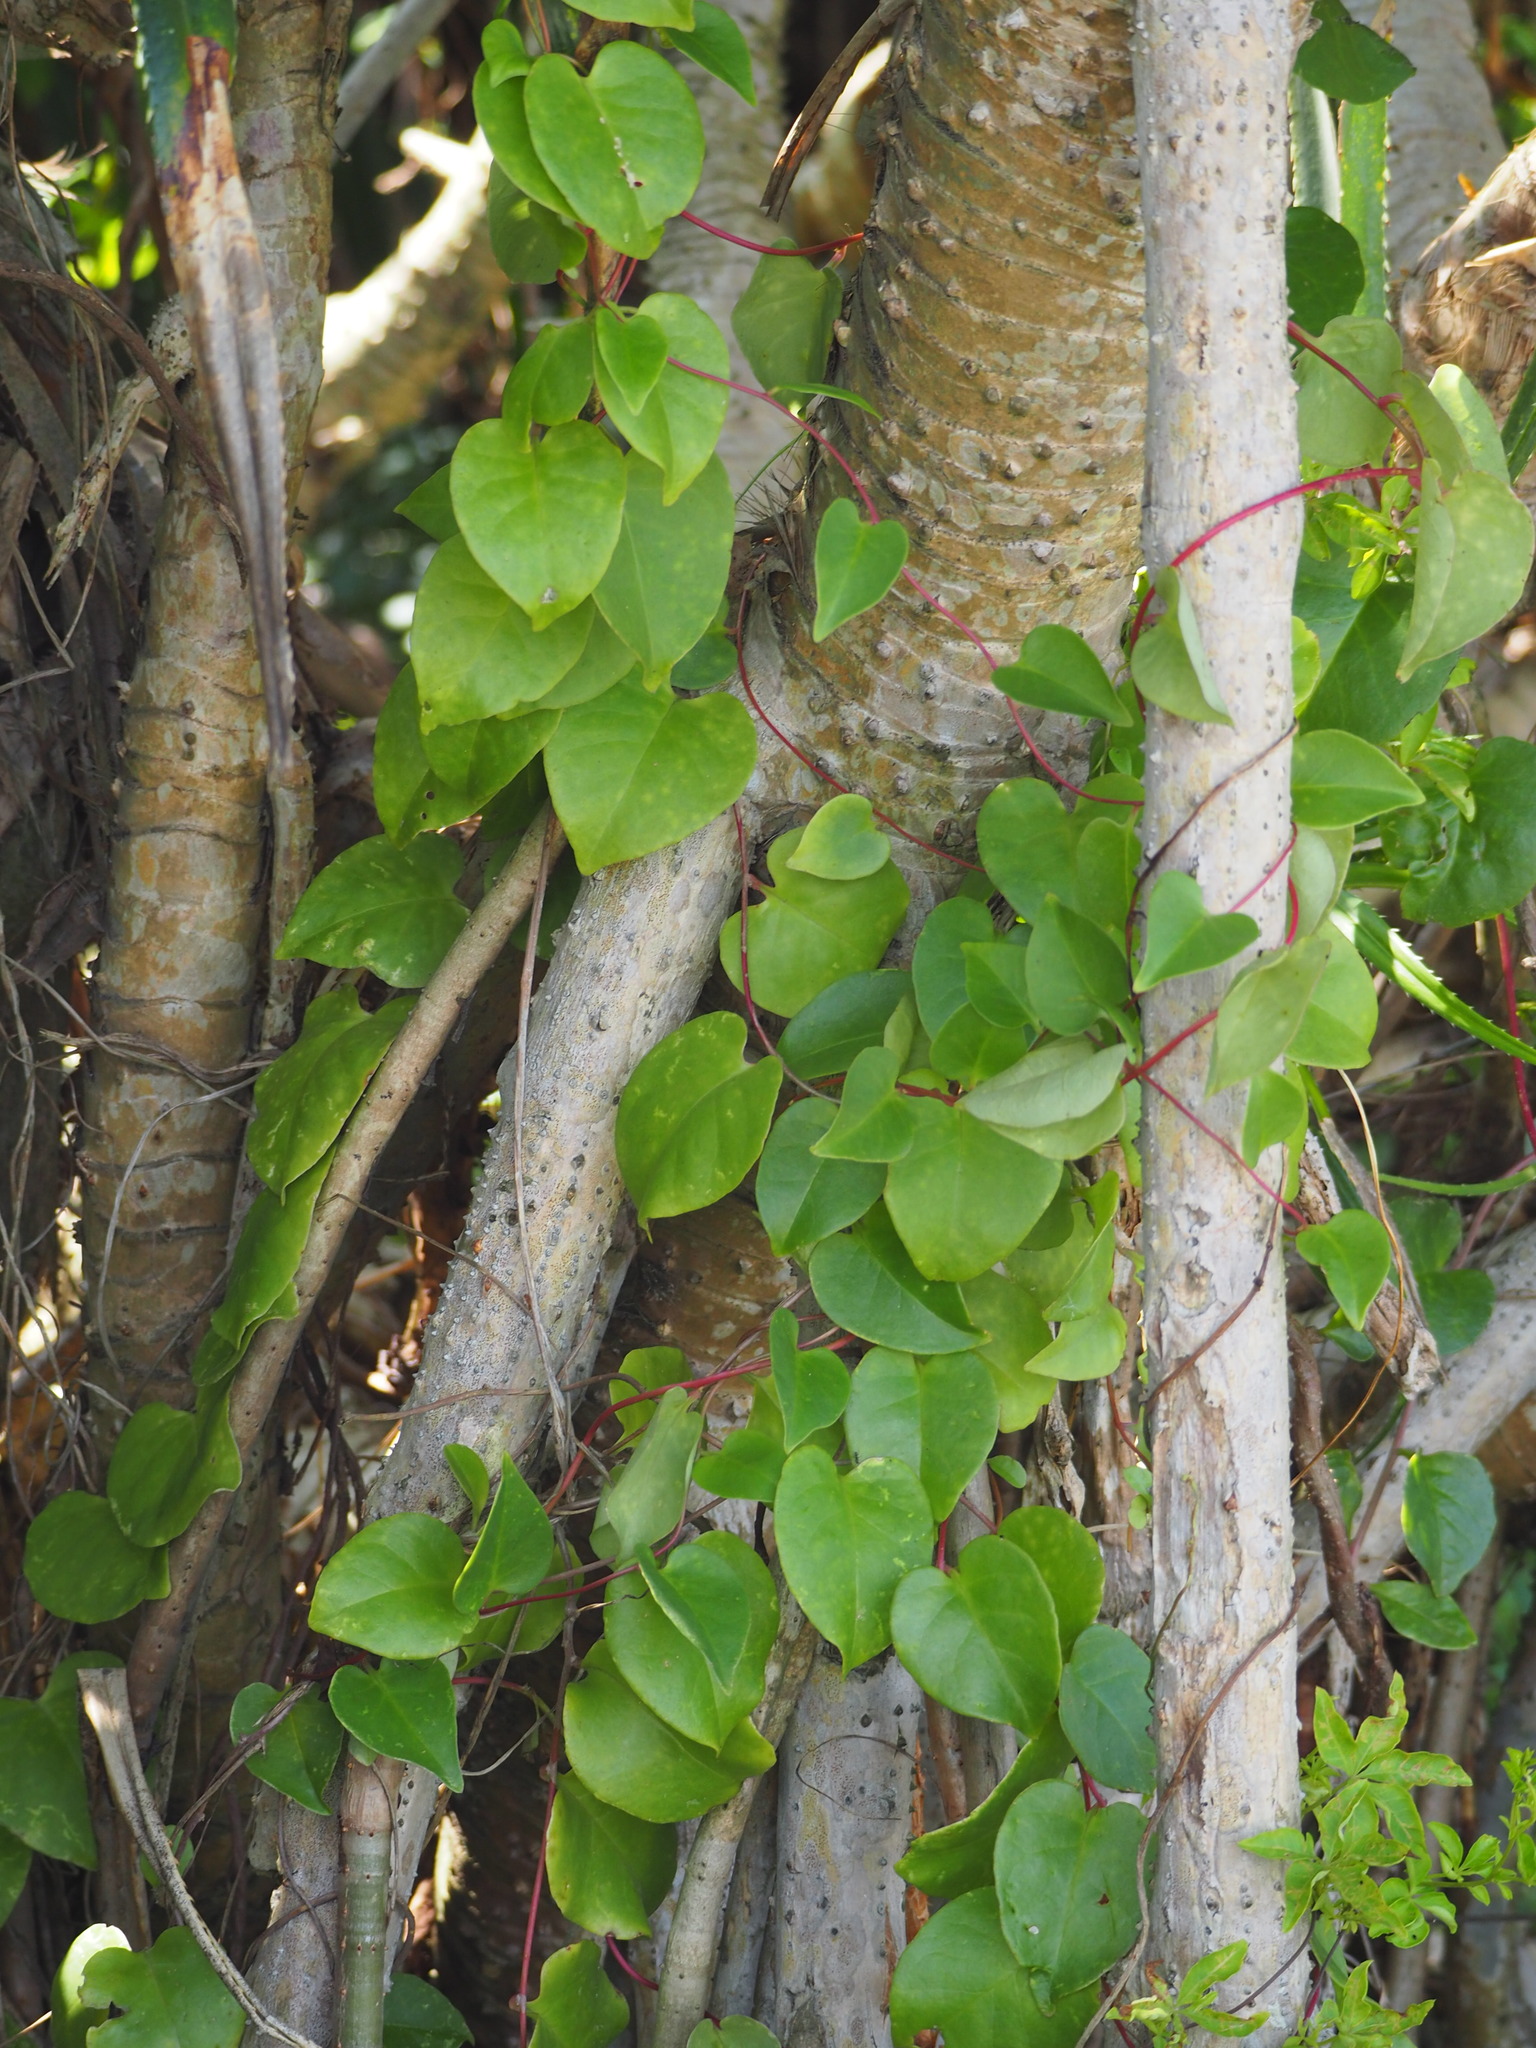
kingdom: Plantae
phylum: Tracheophyta
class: Magnoliopsida
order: Caryophyllales
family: Basellaceae
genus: Anredera
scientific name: Anredera cordifolia
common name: Heartleaf madeiravine
